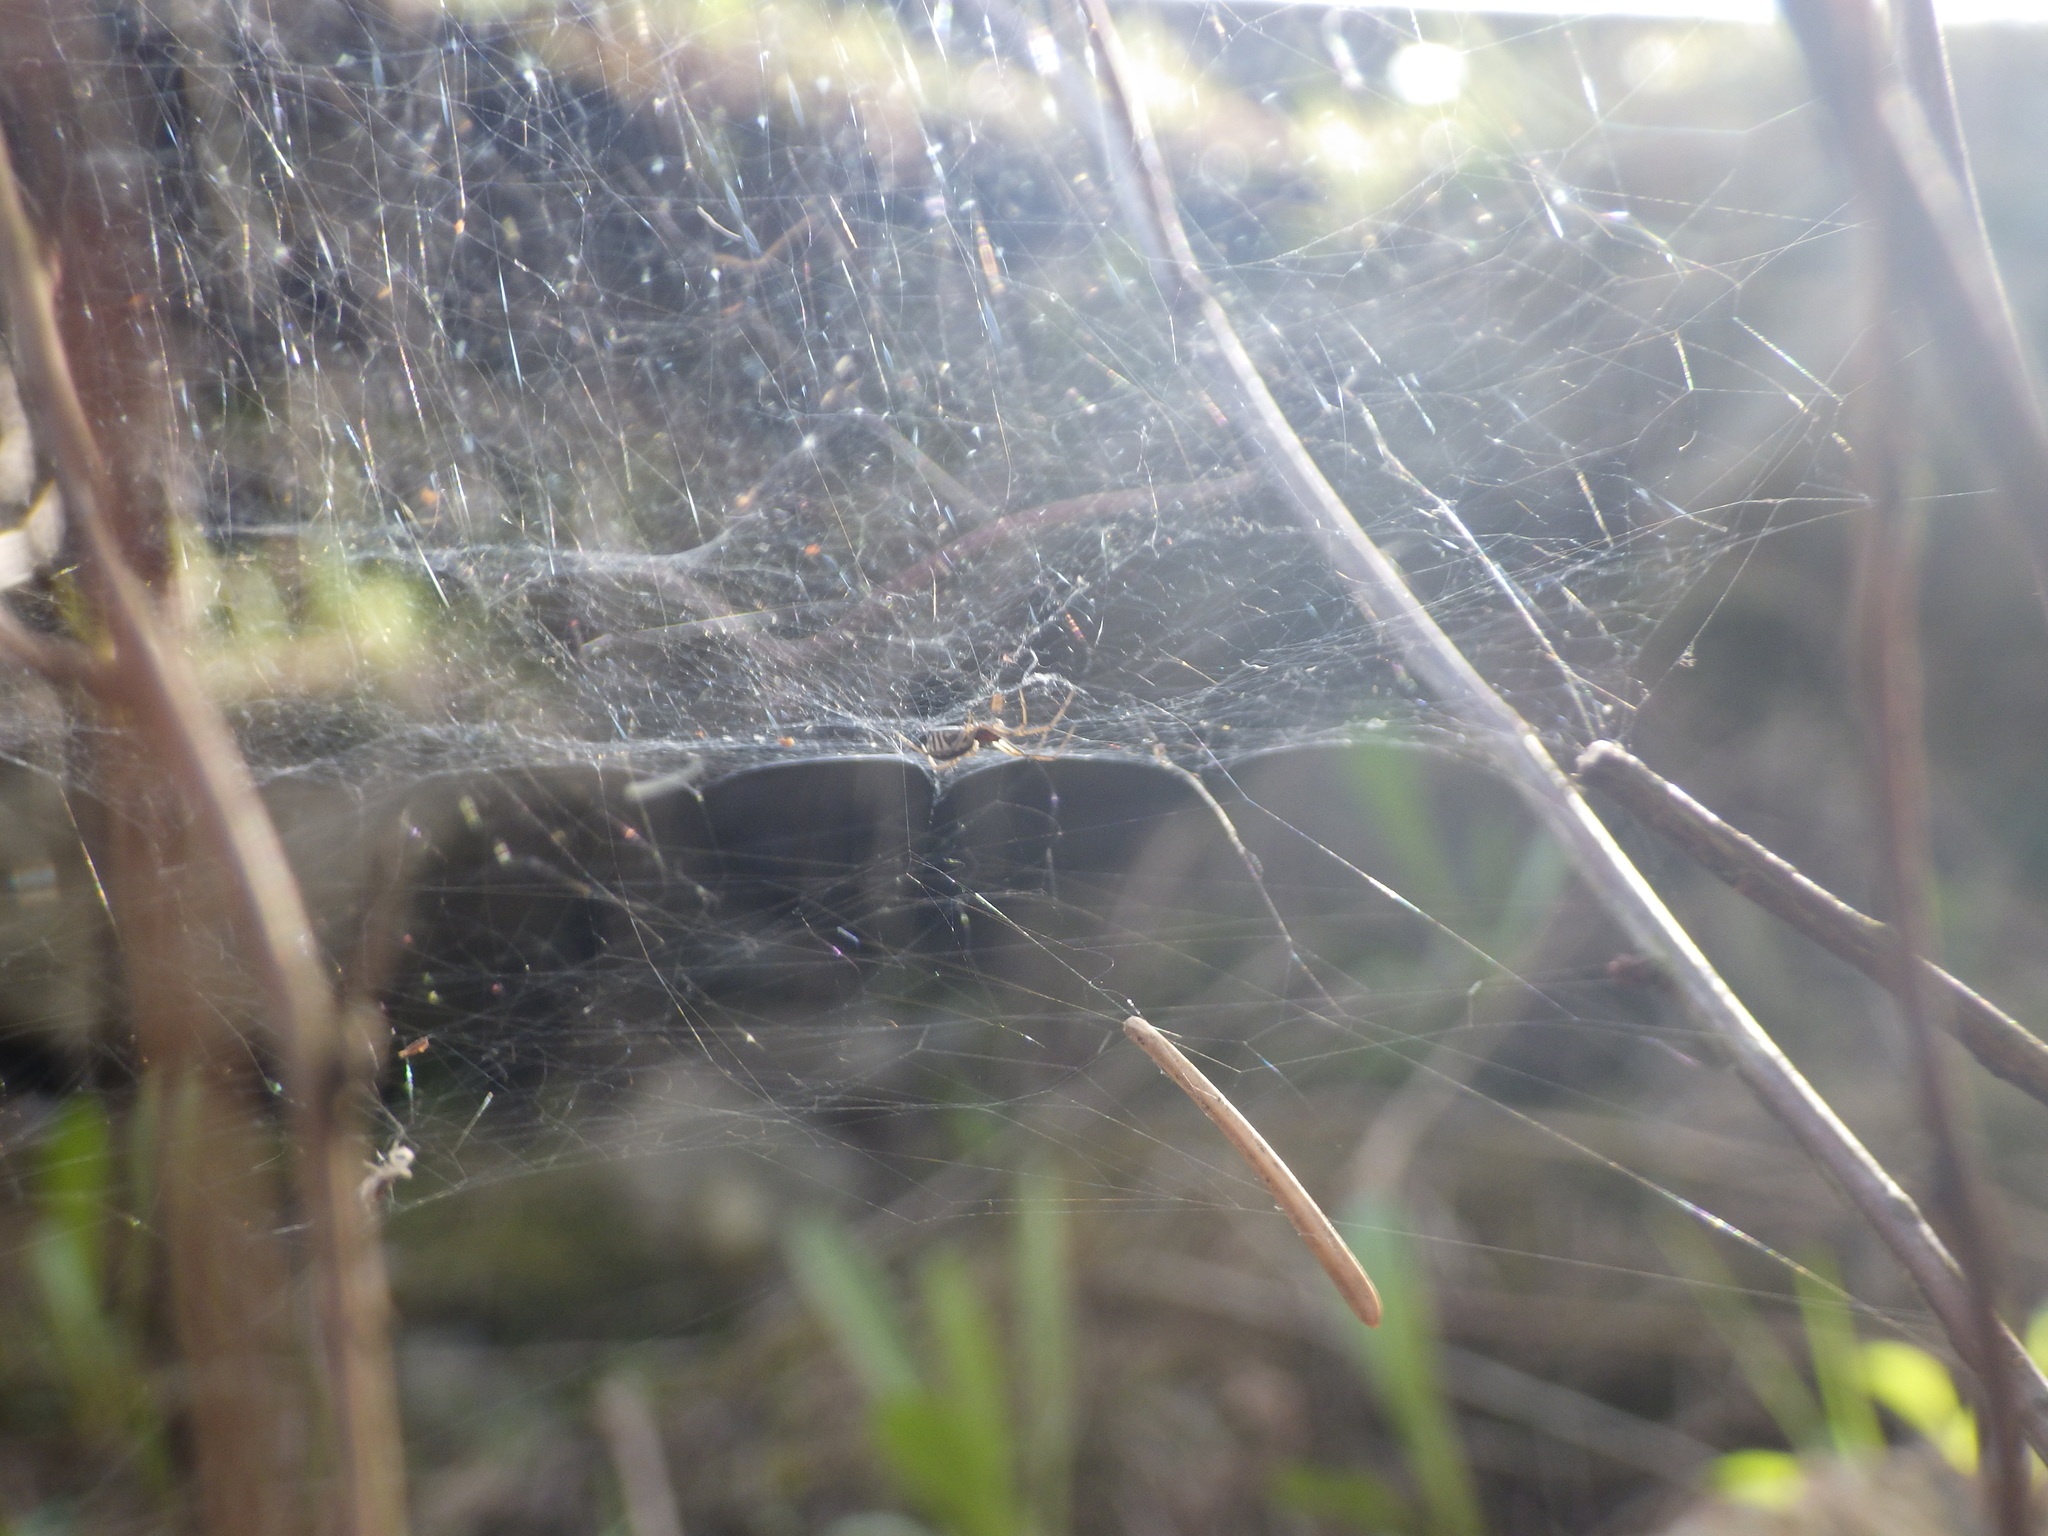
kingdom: Animalia
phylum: Arthropoda
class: Arachnida
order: Araneae
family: Linyphiidae
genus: Frontinella
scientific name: Frontinella pyramitela
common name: Bowl-and-doily spider
